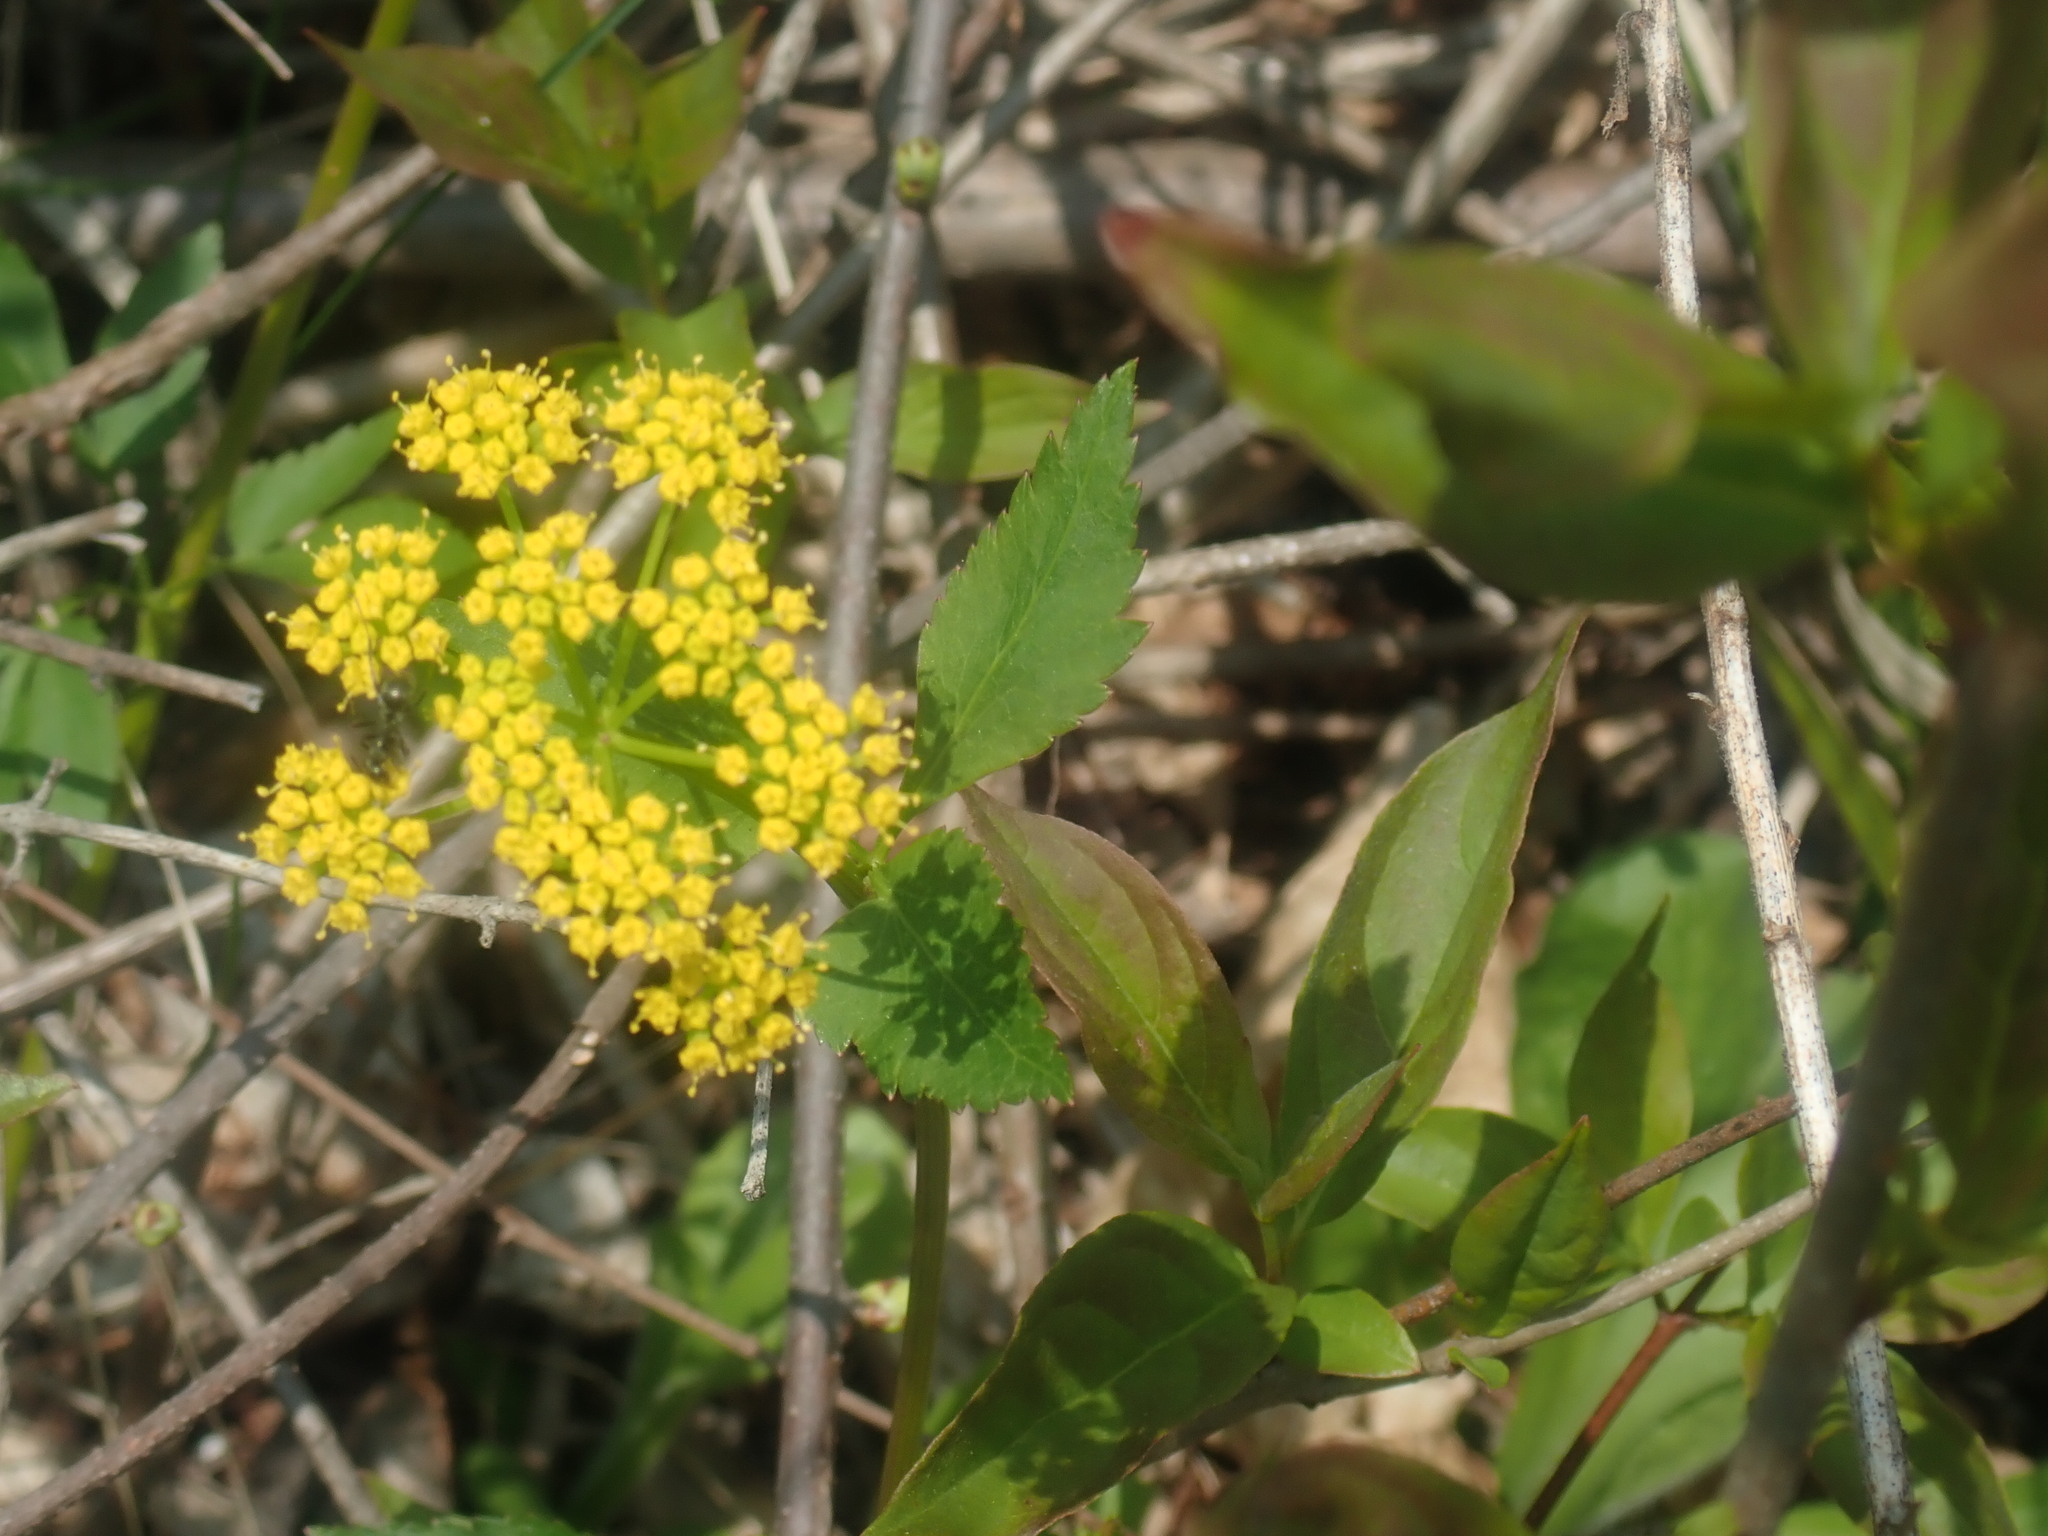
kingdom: Plantae
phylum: Tracheophyta
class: Magnoliopsida
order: Apiales
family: Apiaceae
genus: Zizia
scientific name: Zizia aurea
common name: Golden alexanders
